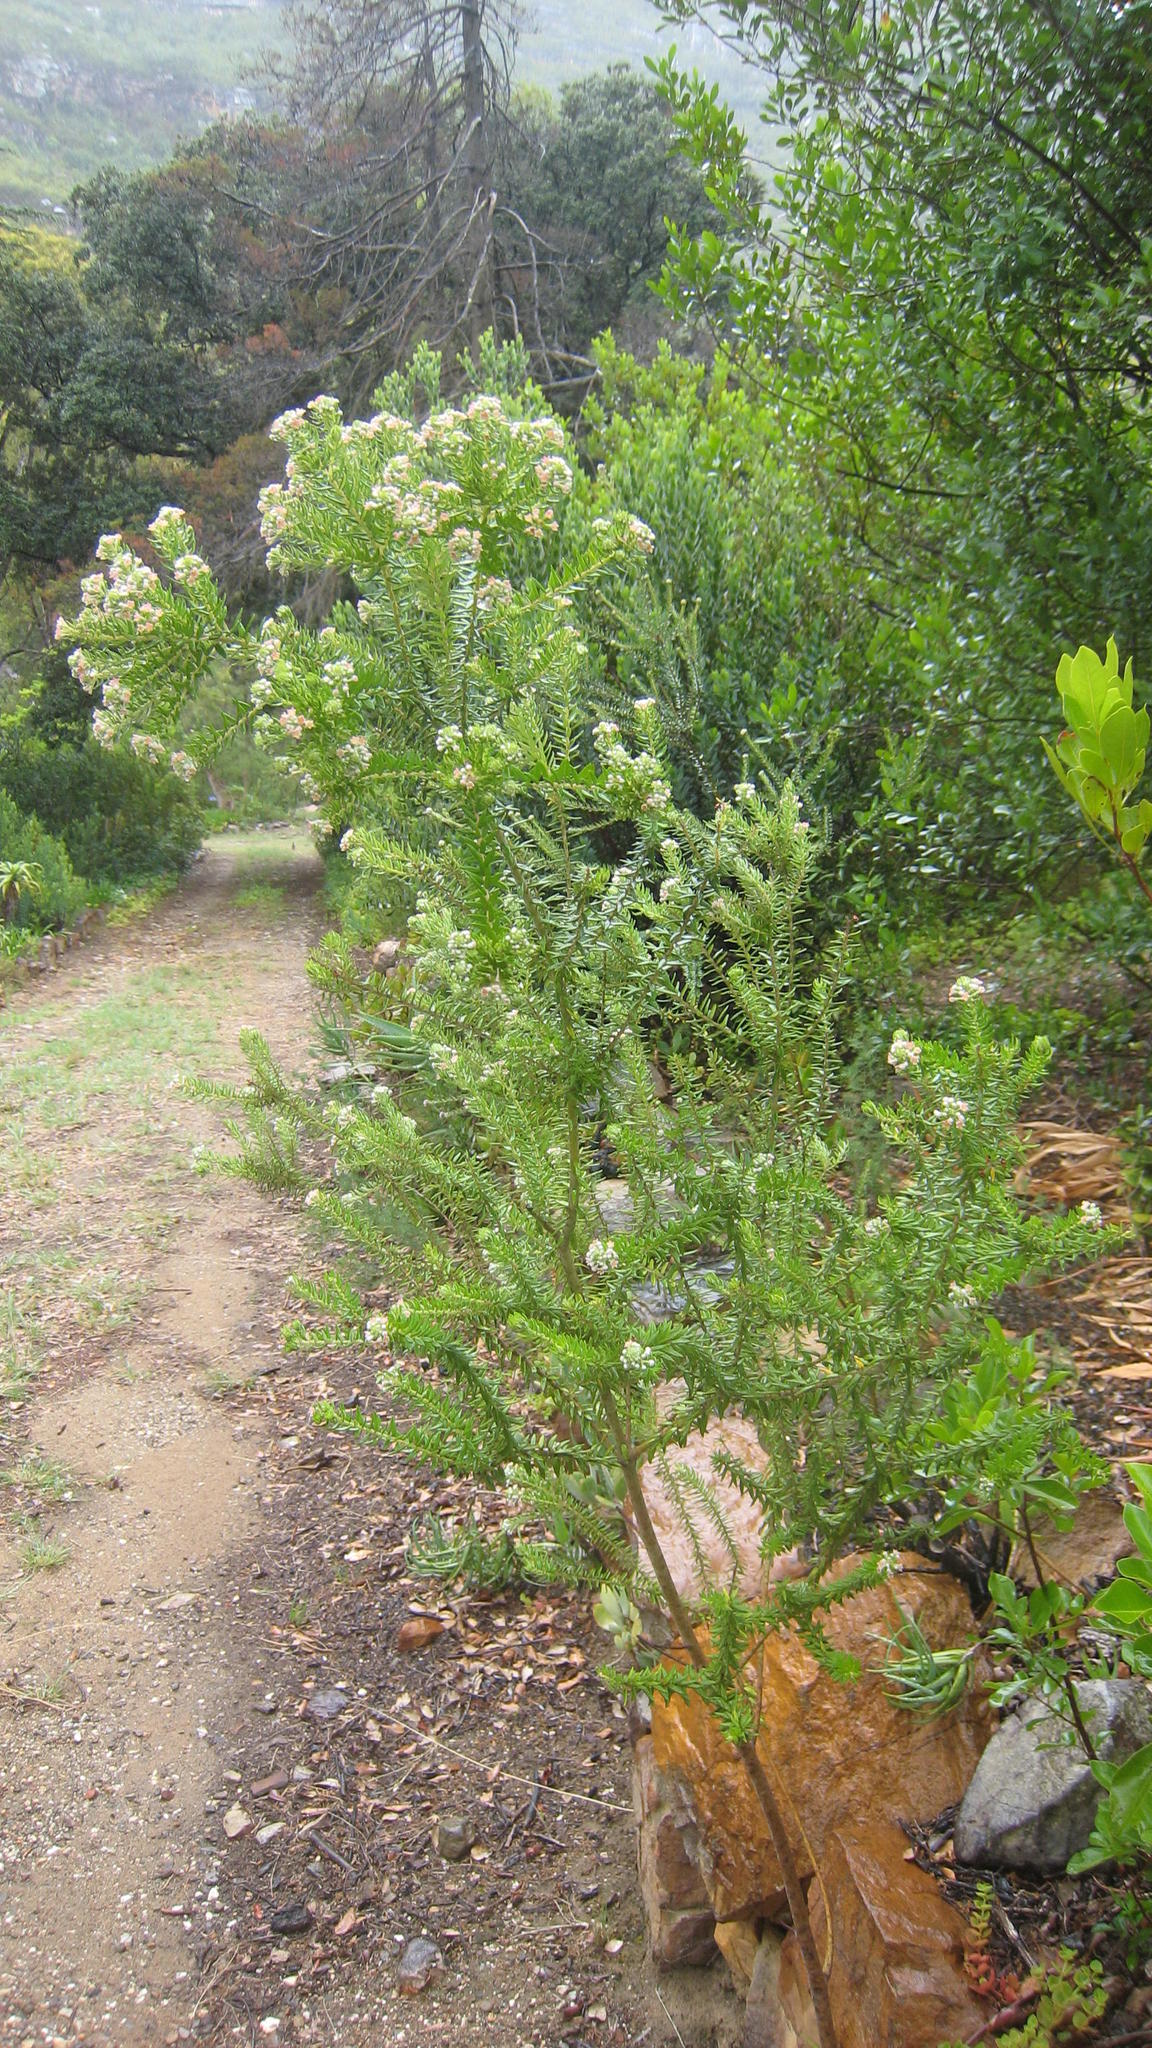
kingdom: Plantae
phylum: Tracheophyta
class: Magnoliopsida
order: Rosales
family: Rhamnaceae
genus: Phylica
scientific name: Phylica pinea
